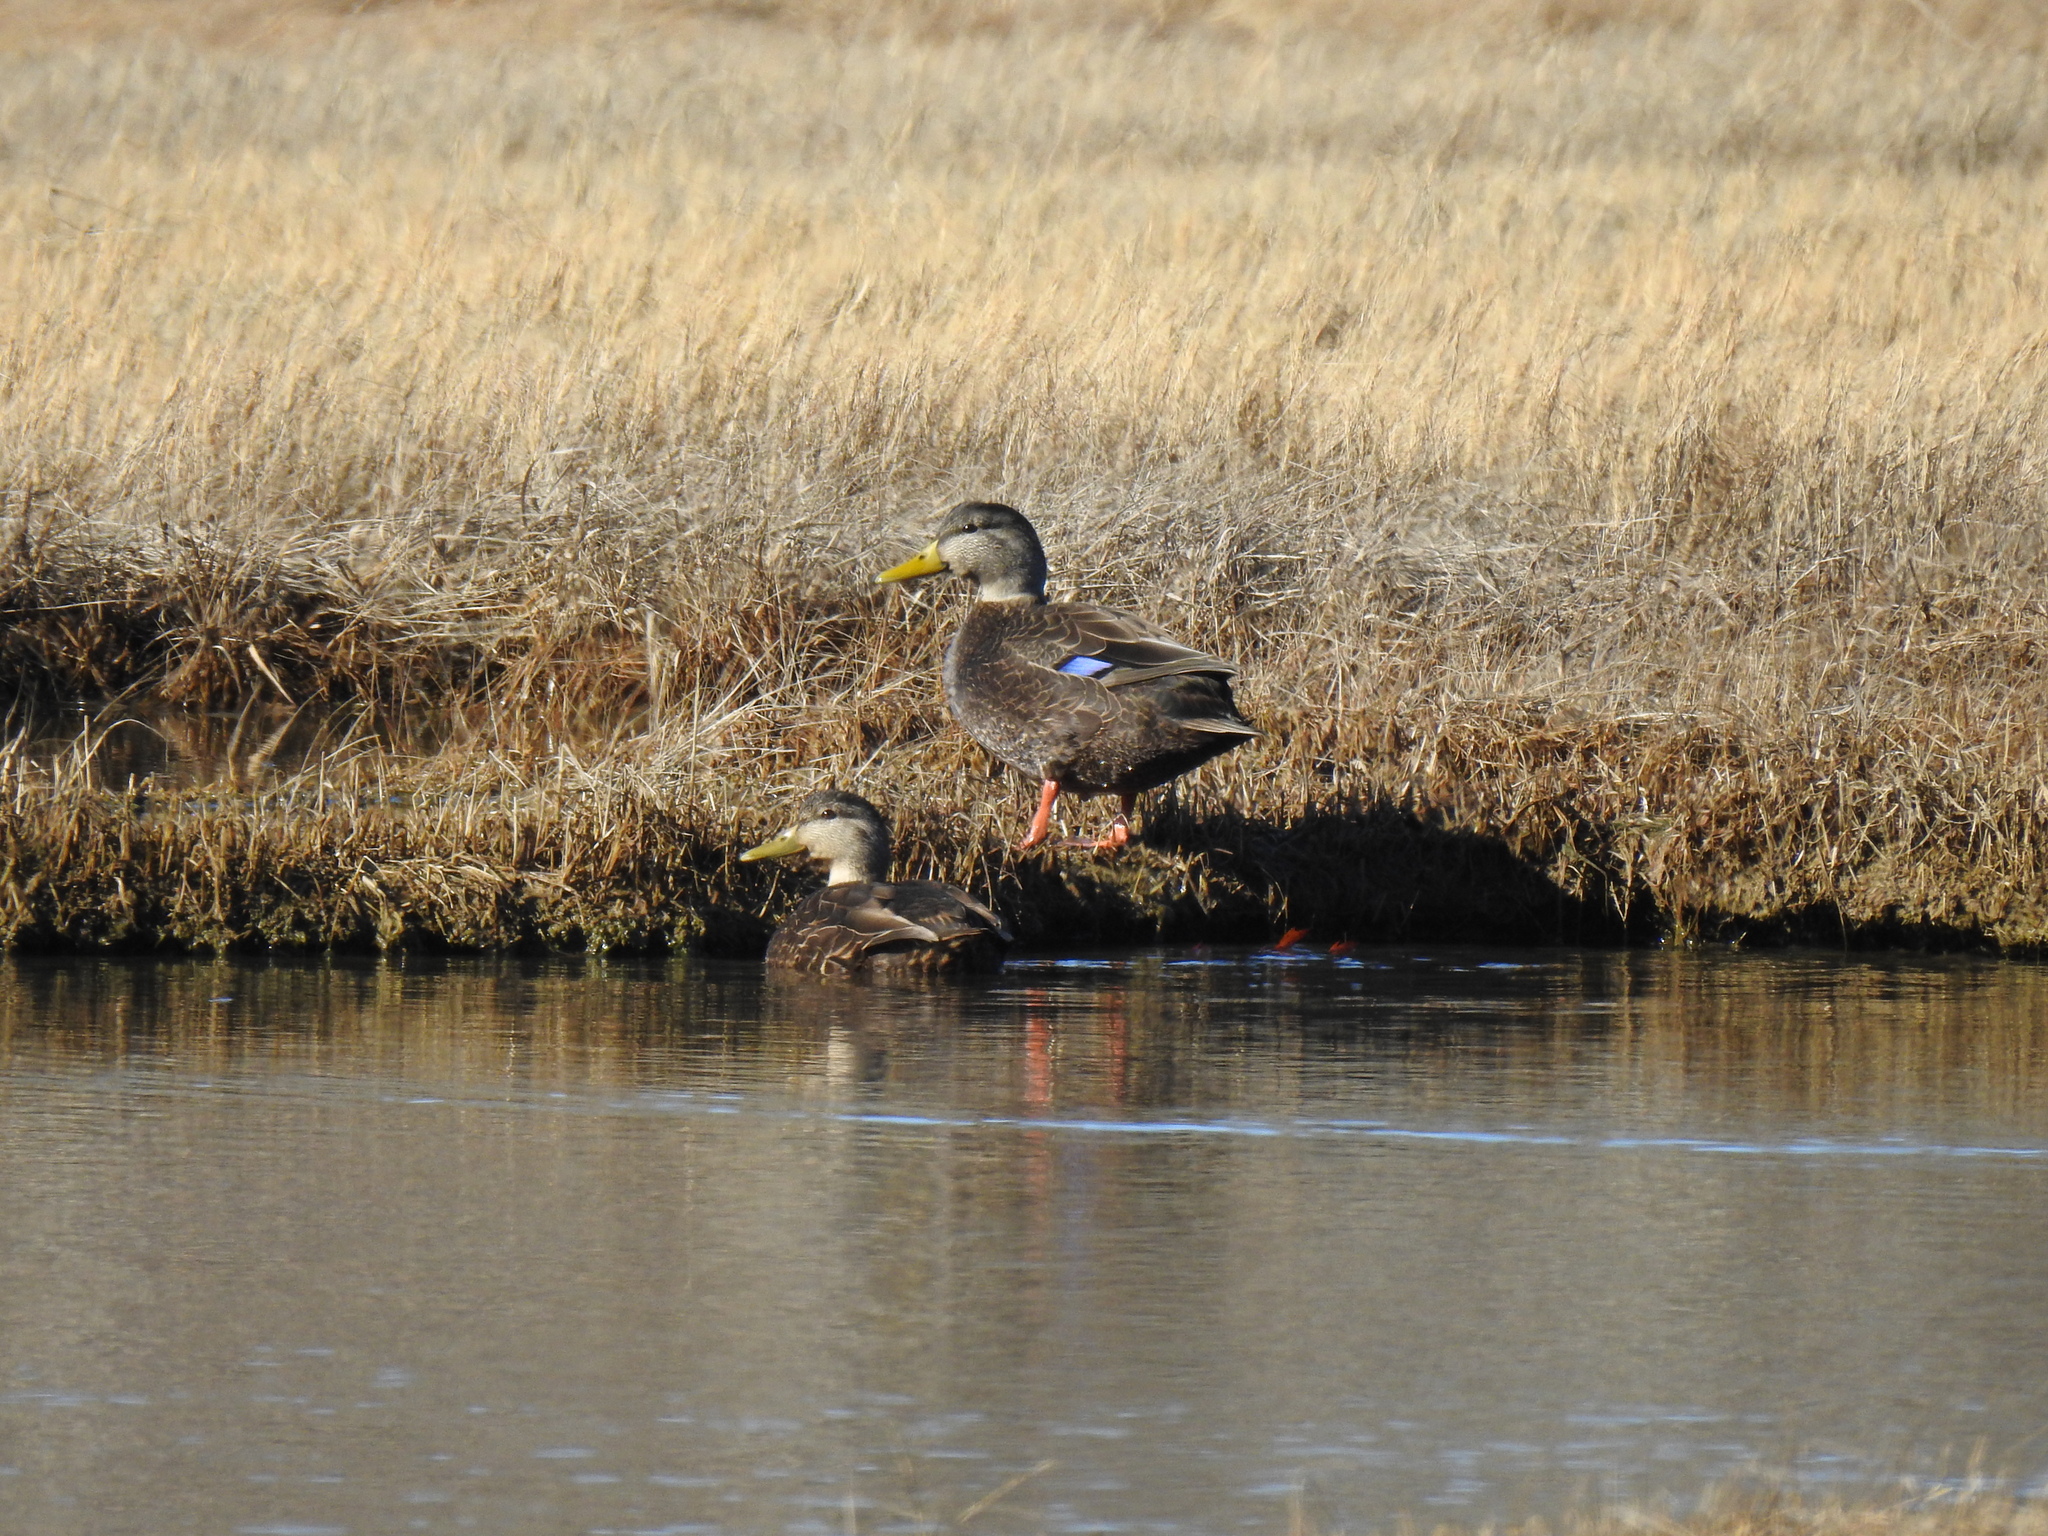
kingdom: Animalia
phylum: Chordata
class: Aves
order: Anseriformes
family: Anatidae
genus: Anas
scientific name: Anas rubripes
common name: American black duck
